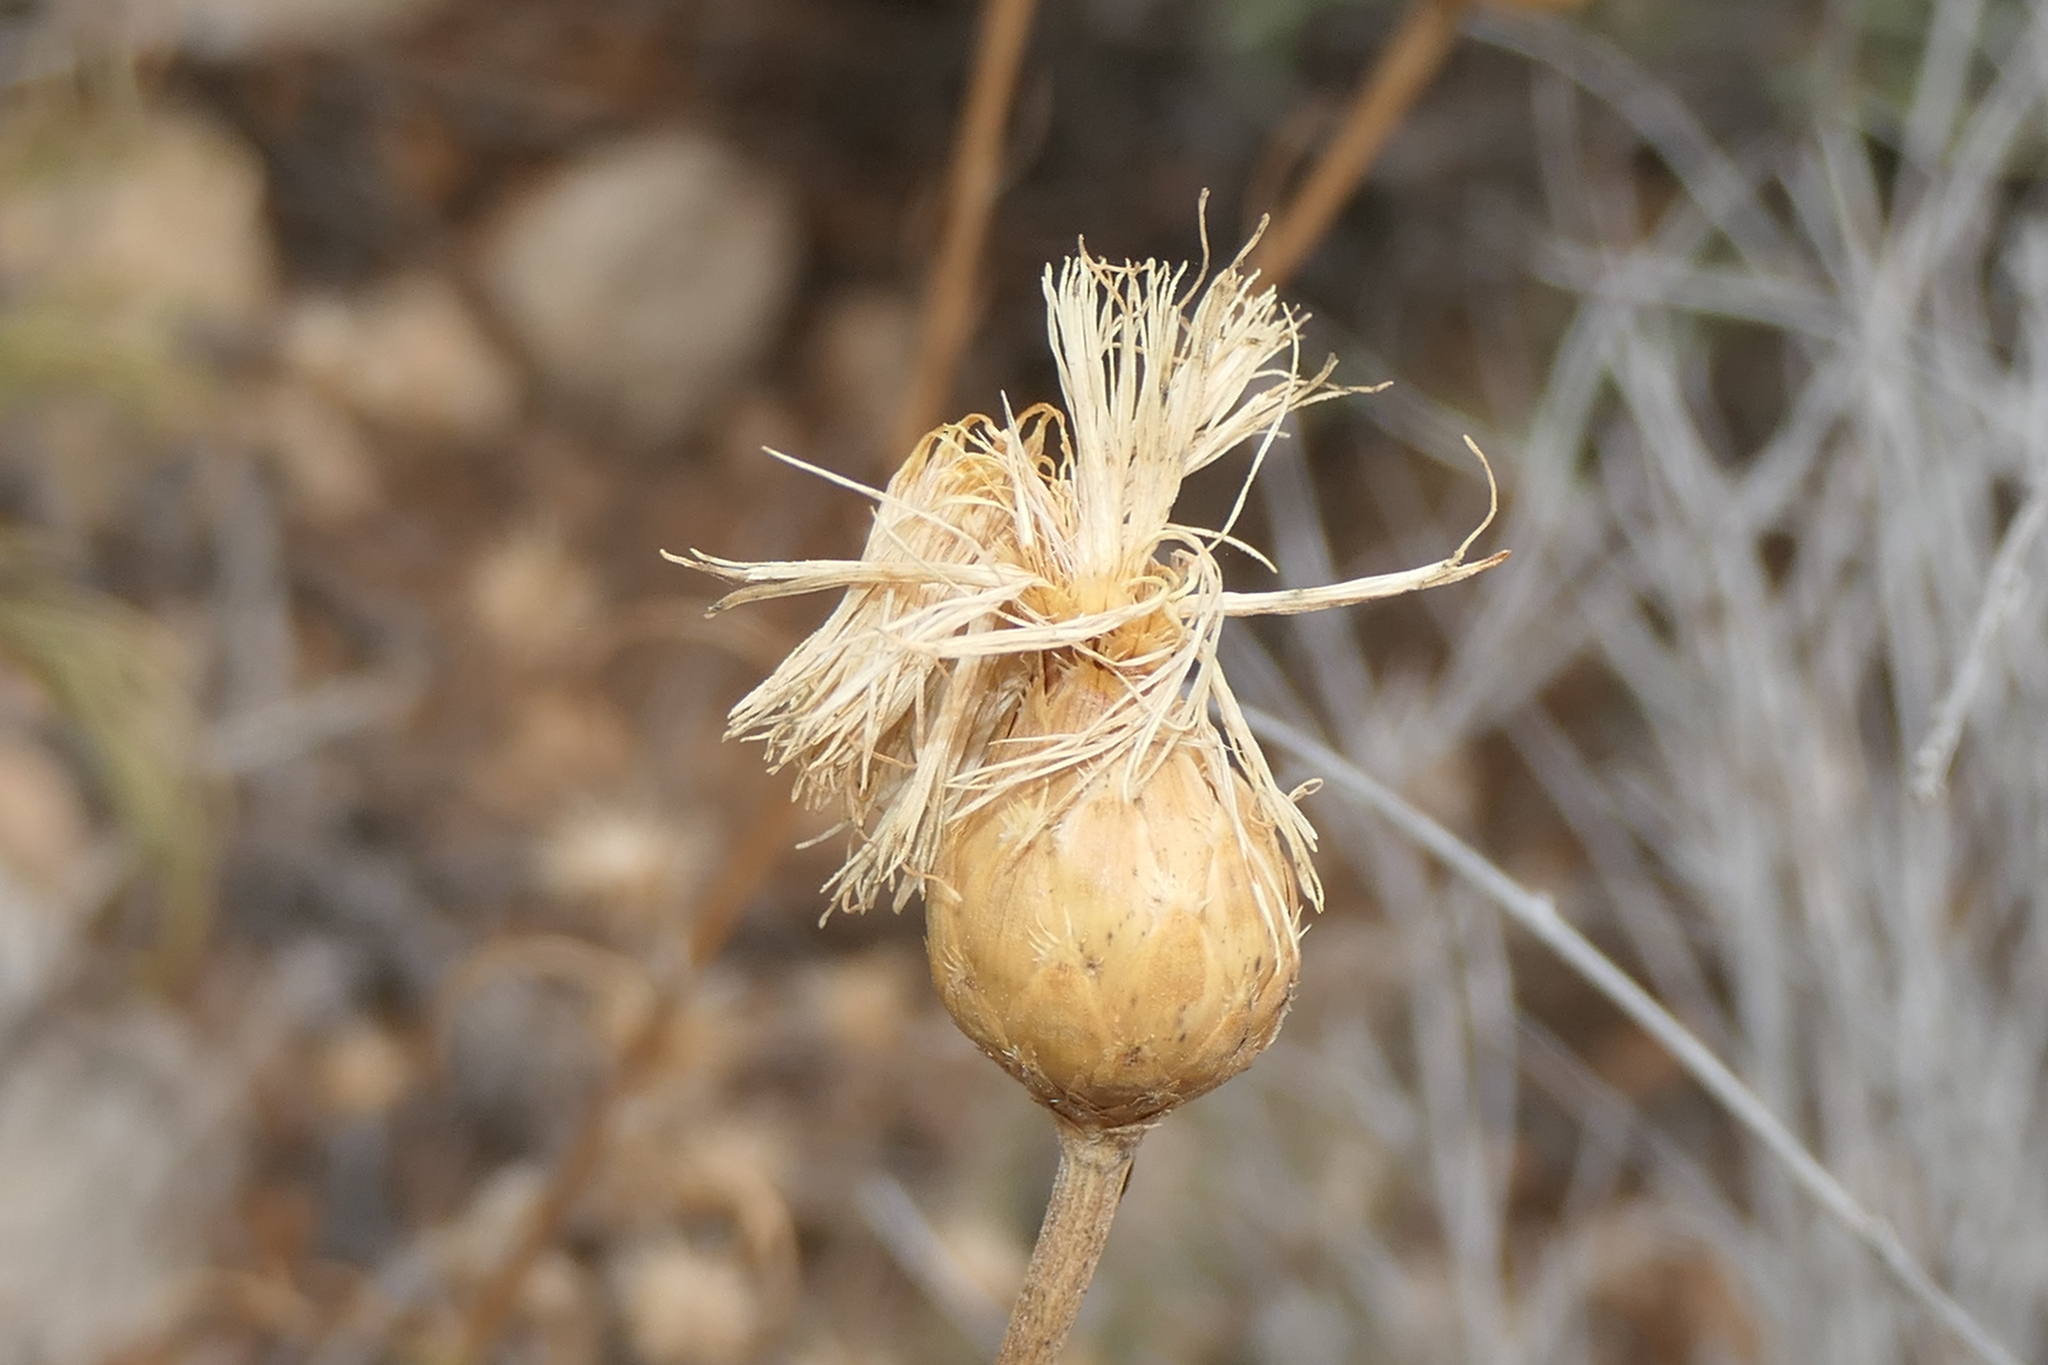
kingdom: Plantae
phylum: Tracheophyta
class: Magnoliopsida
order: Asterales
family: Asteraceae
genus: Cheirolophus
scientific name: Cheirolophus intybaceus
